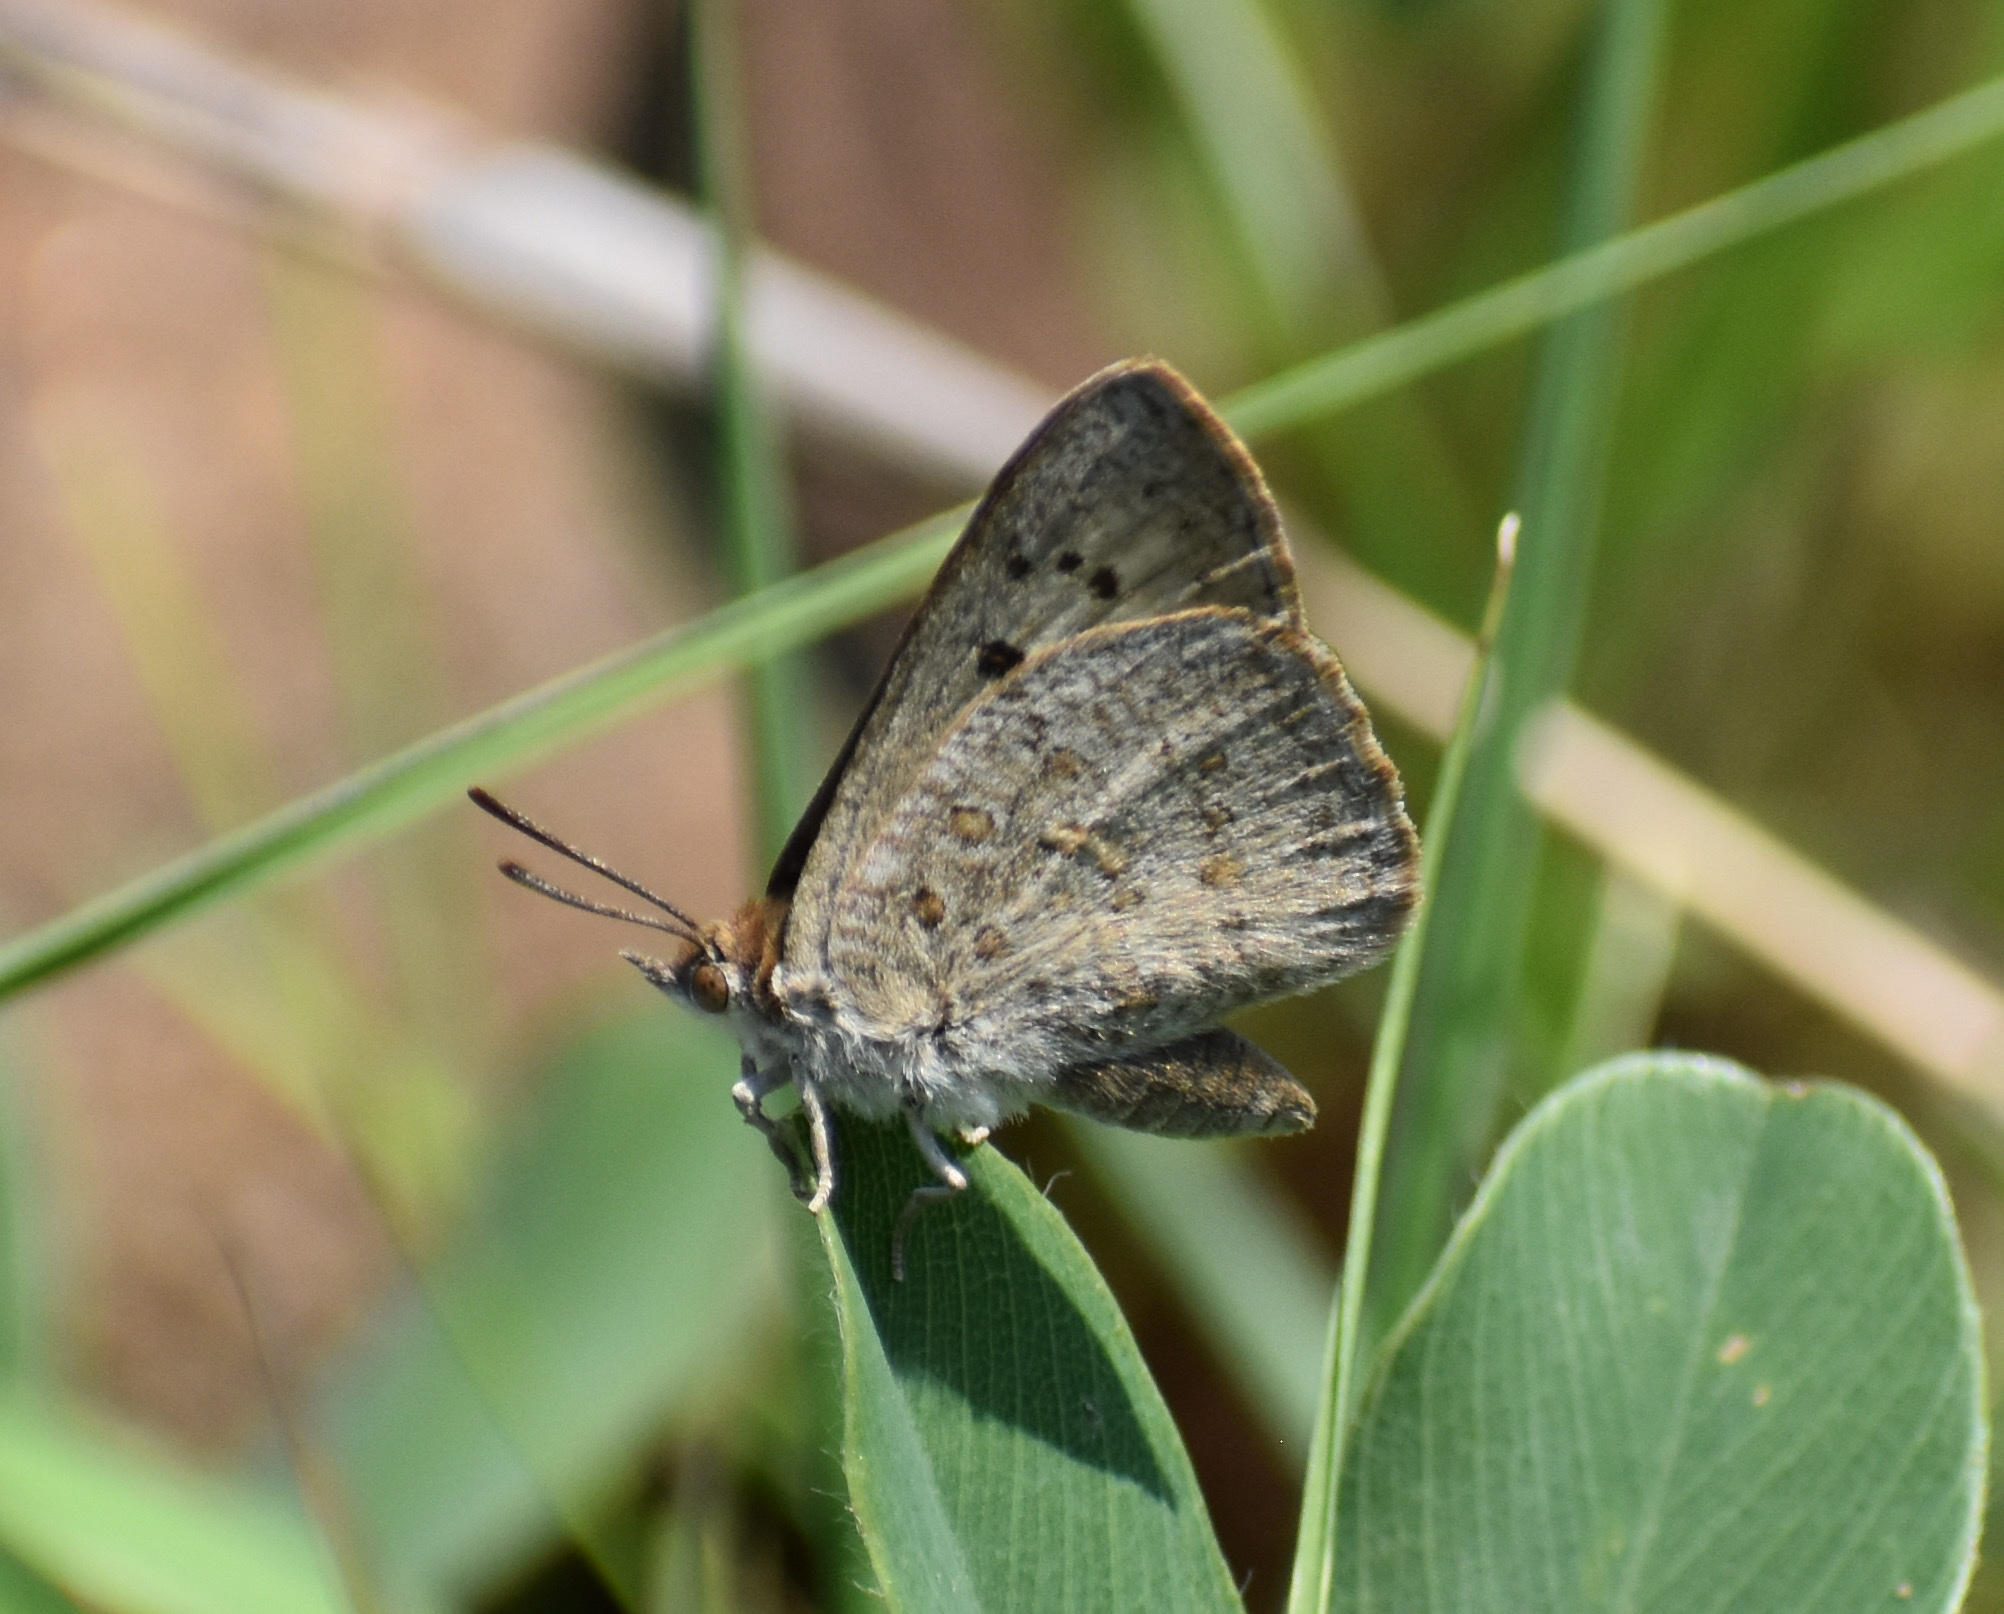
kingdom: Animalia
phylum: Arthropoda
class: Insecta
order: Lepidoptera
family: Lycaenidae
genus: Thestor
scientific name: Thestor basutus
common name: Basuto skolly
